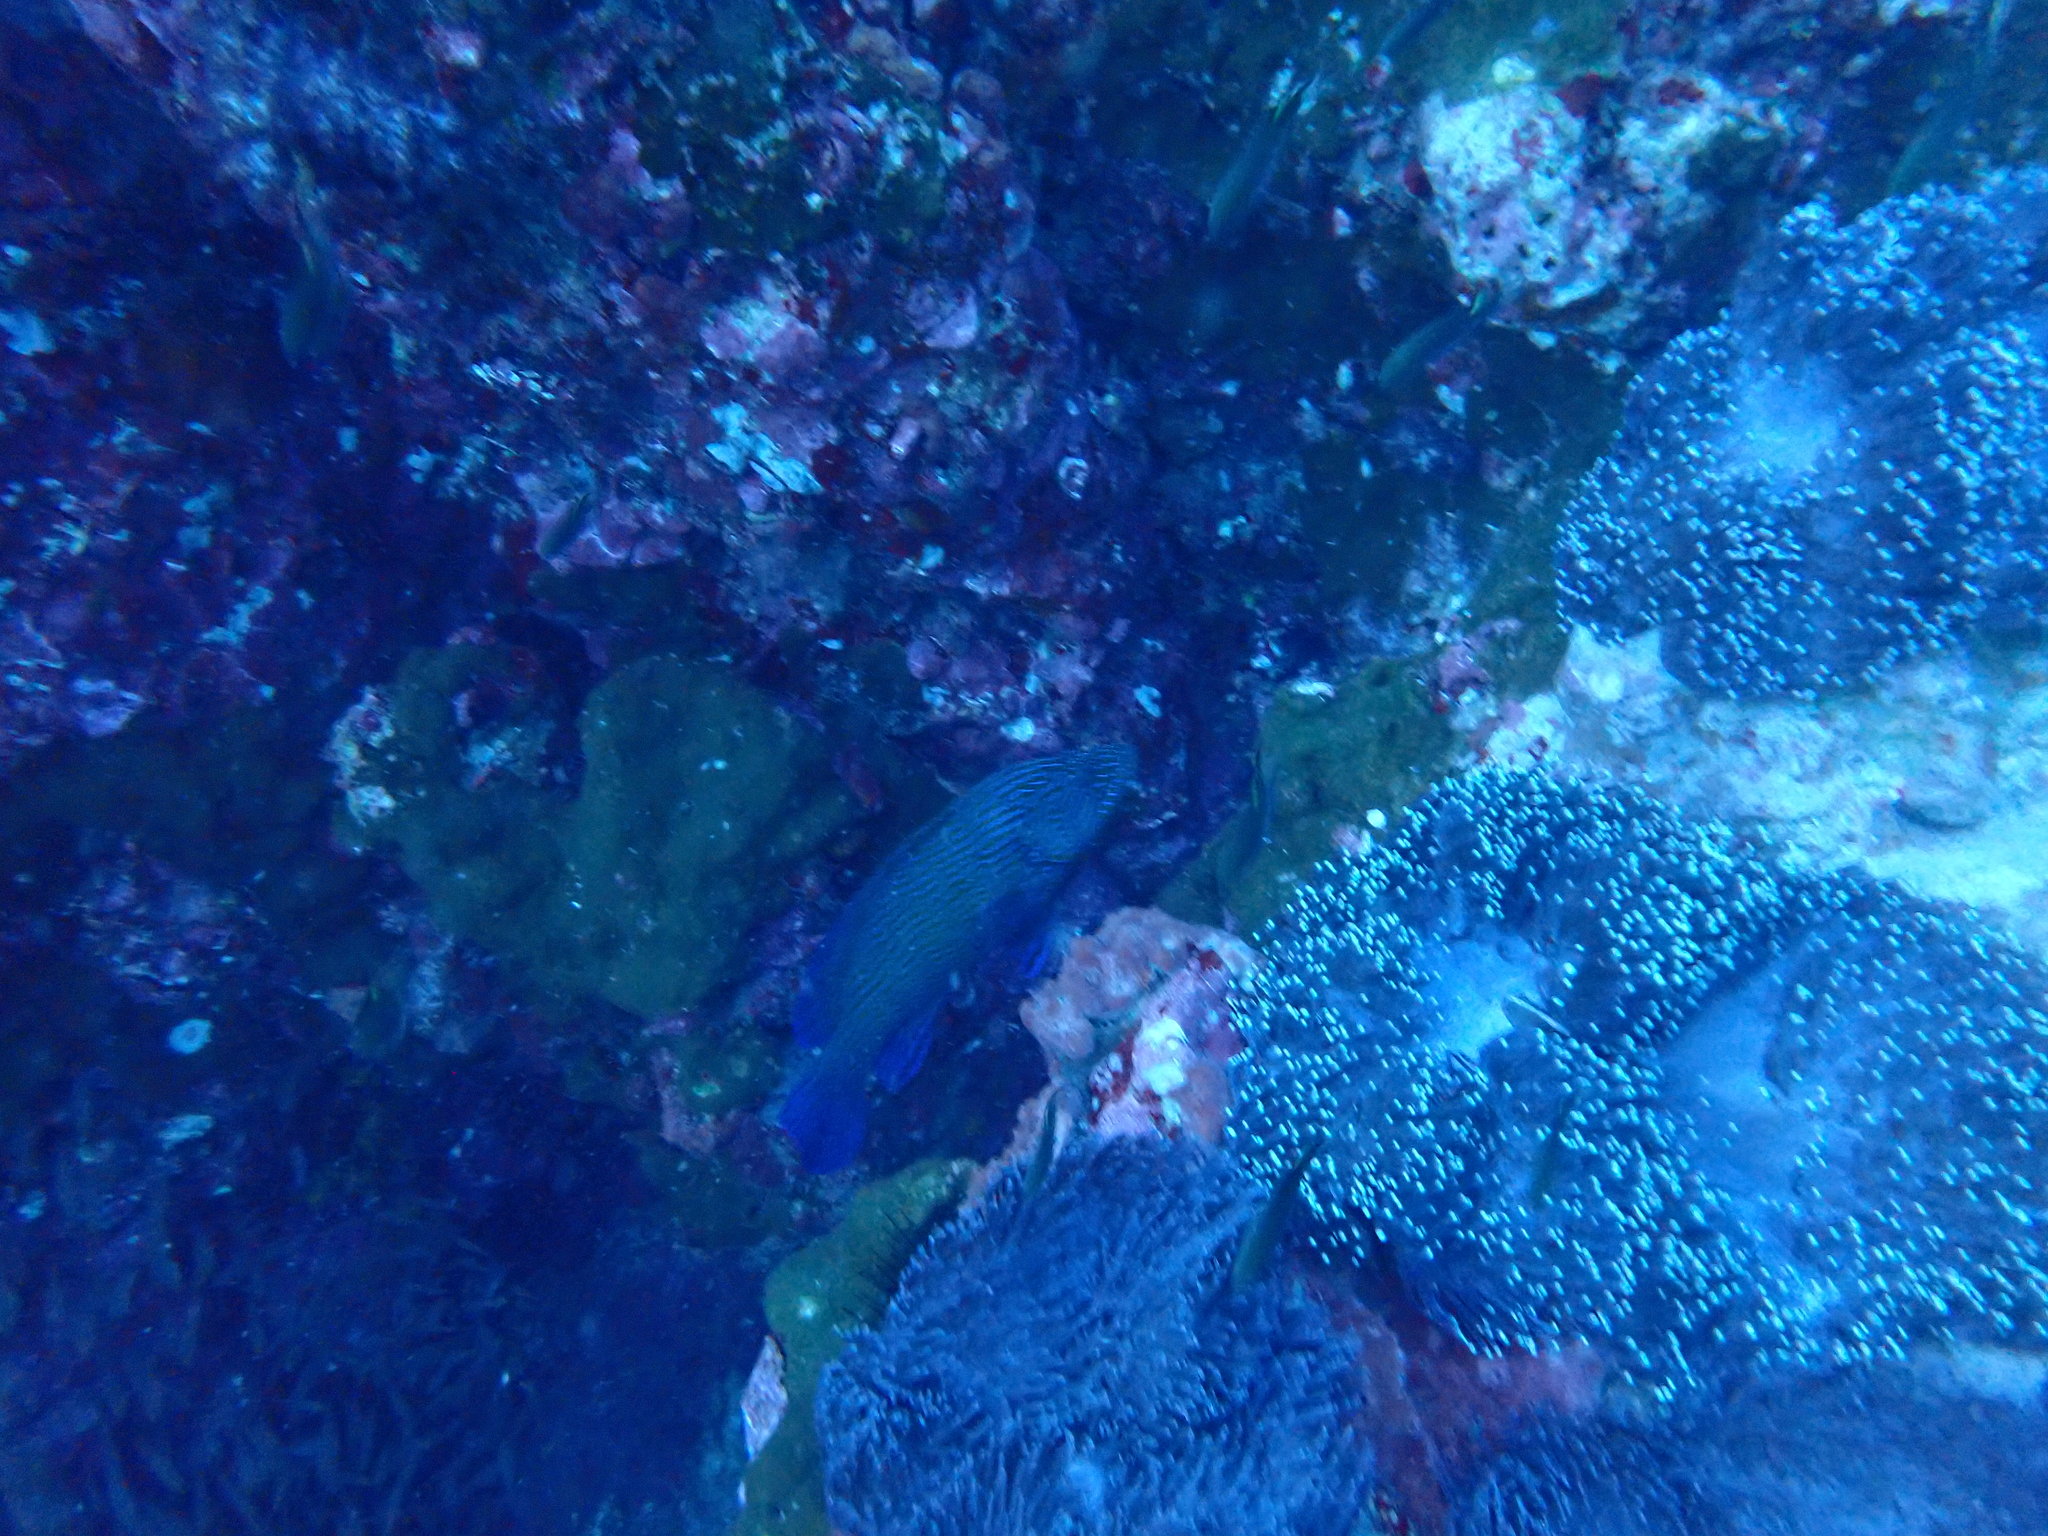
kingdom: Animalia
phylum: Chordata
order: Perciformes
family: Serranidae
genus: Cephalopholis
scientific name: Cephalopholis formosa
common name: Bluelined hind
